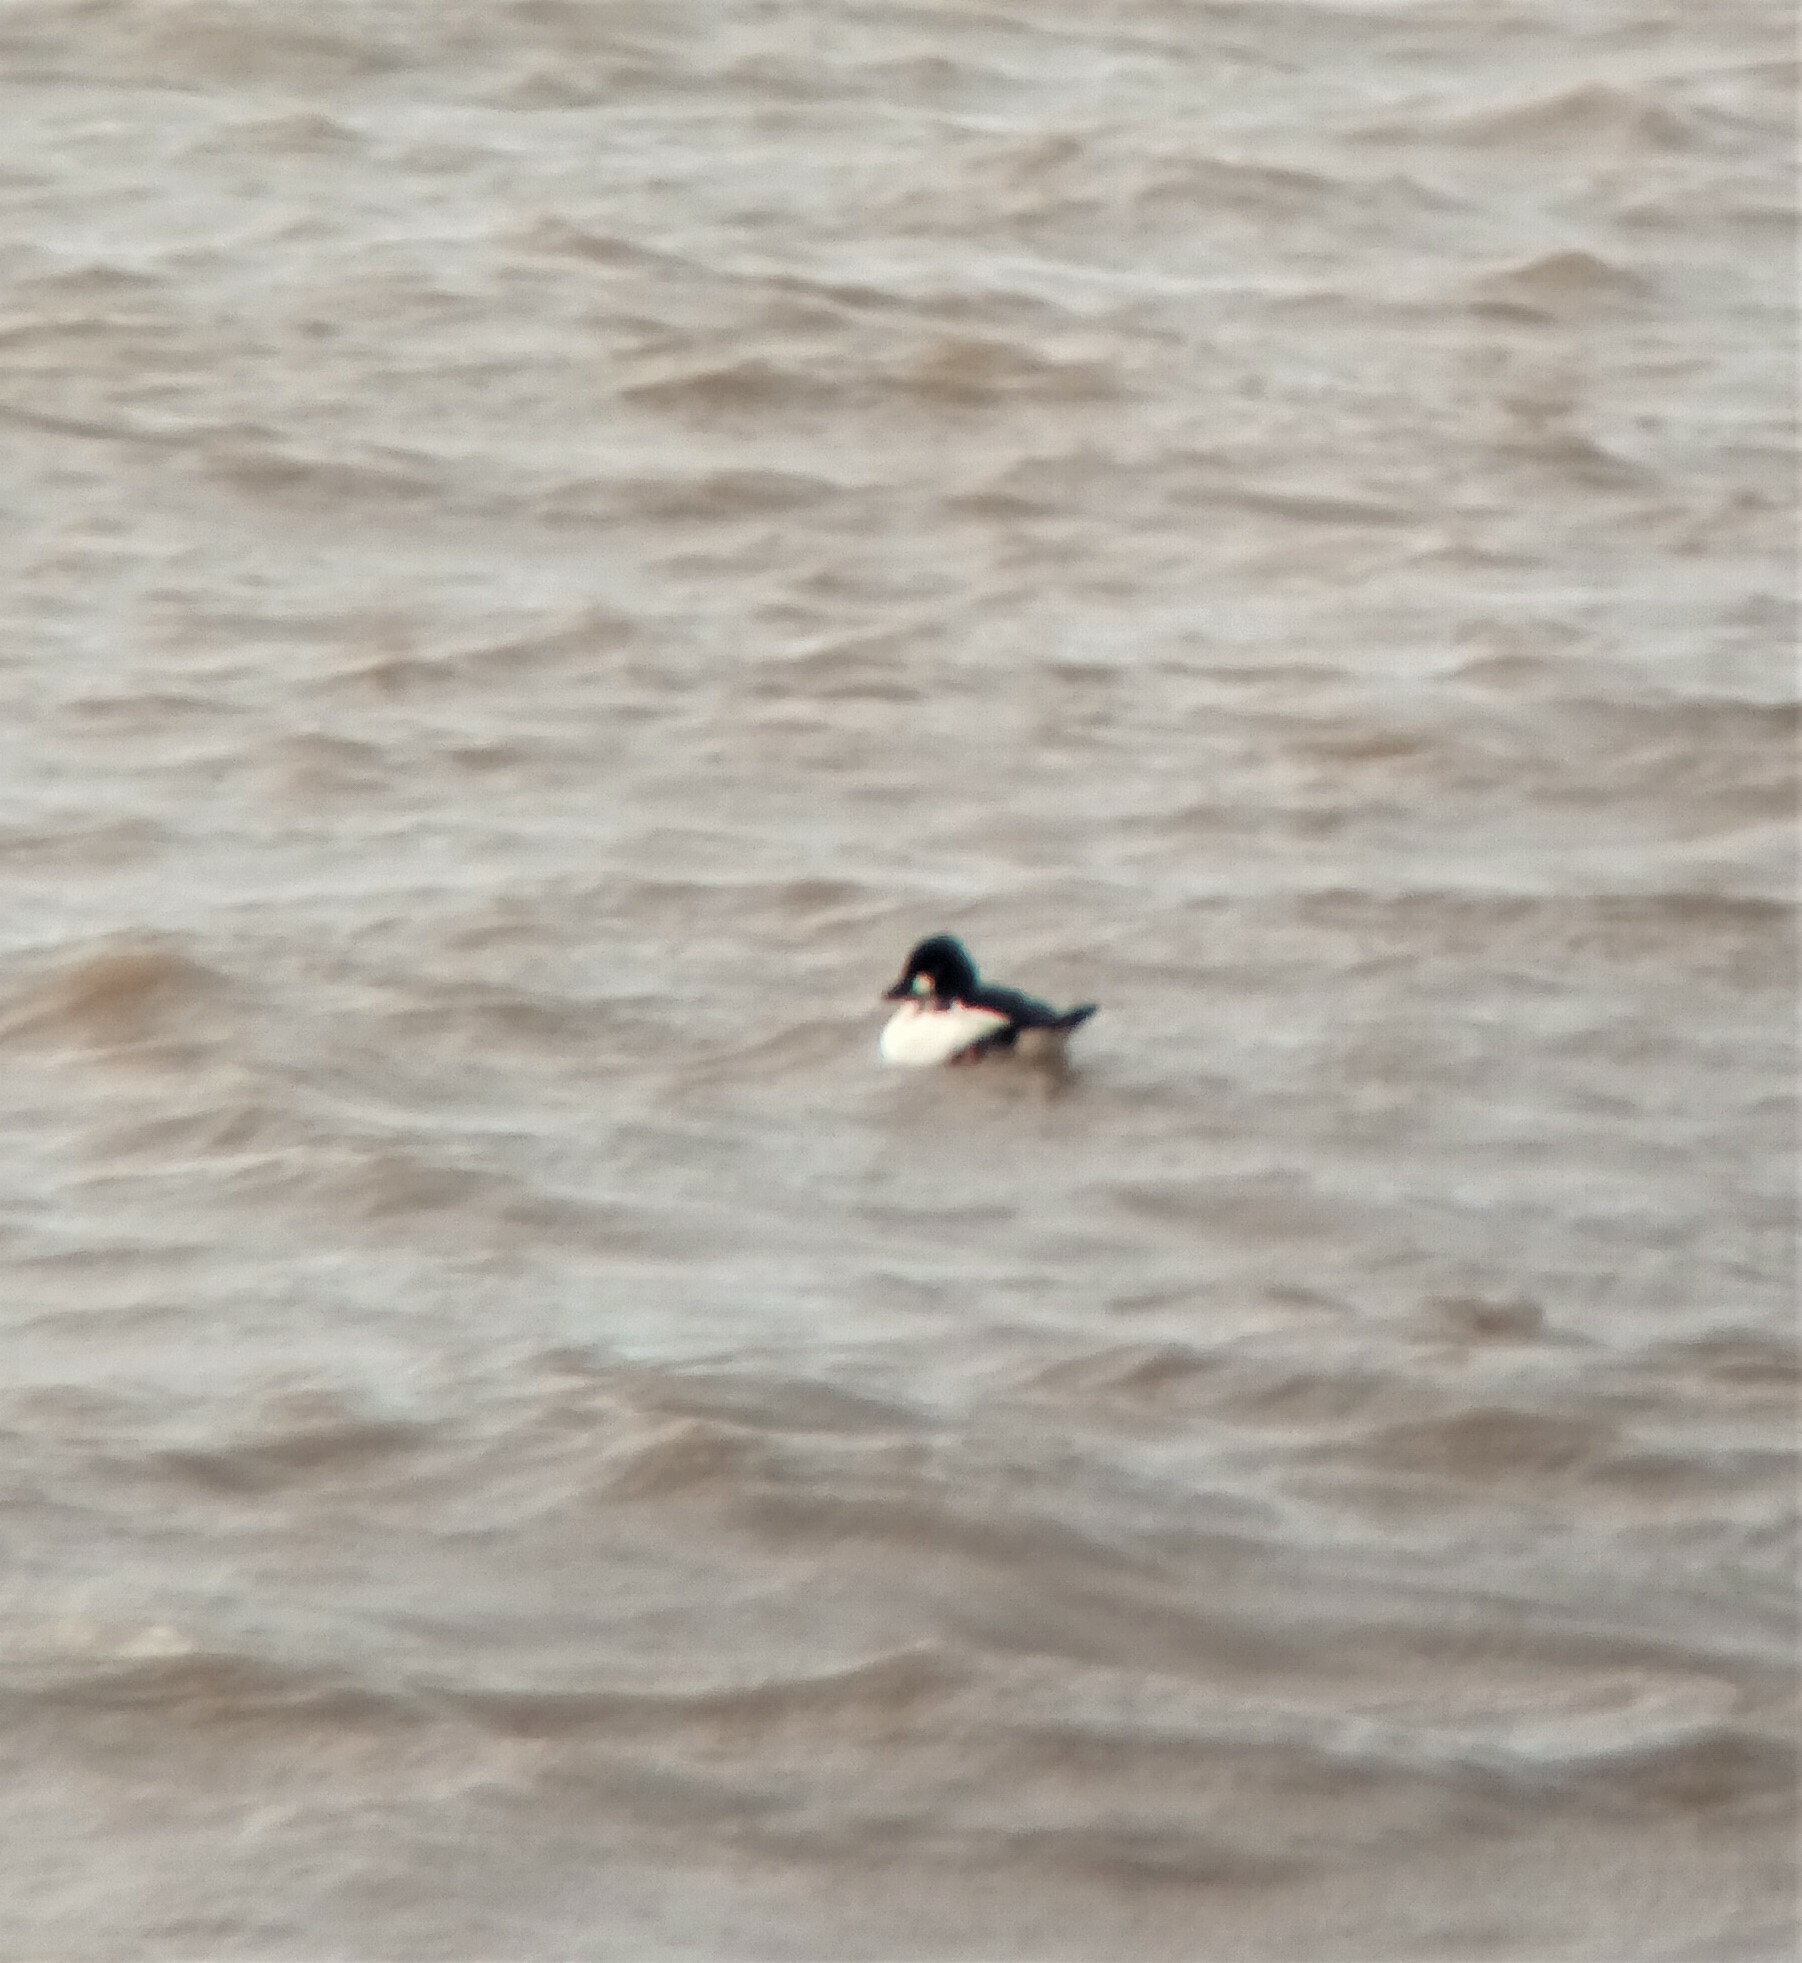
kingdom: Animalia
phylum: Chordata
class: Aves
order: Anseriformes
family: Anatidae
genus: Bucephala
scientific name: Bucephala clangula
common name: Common goldeneye
